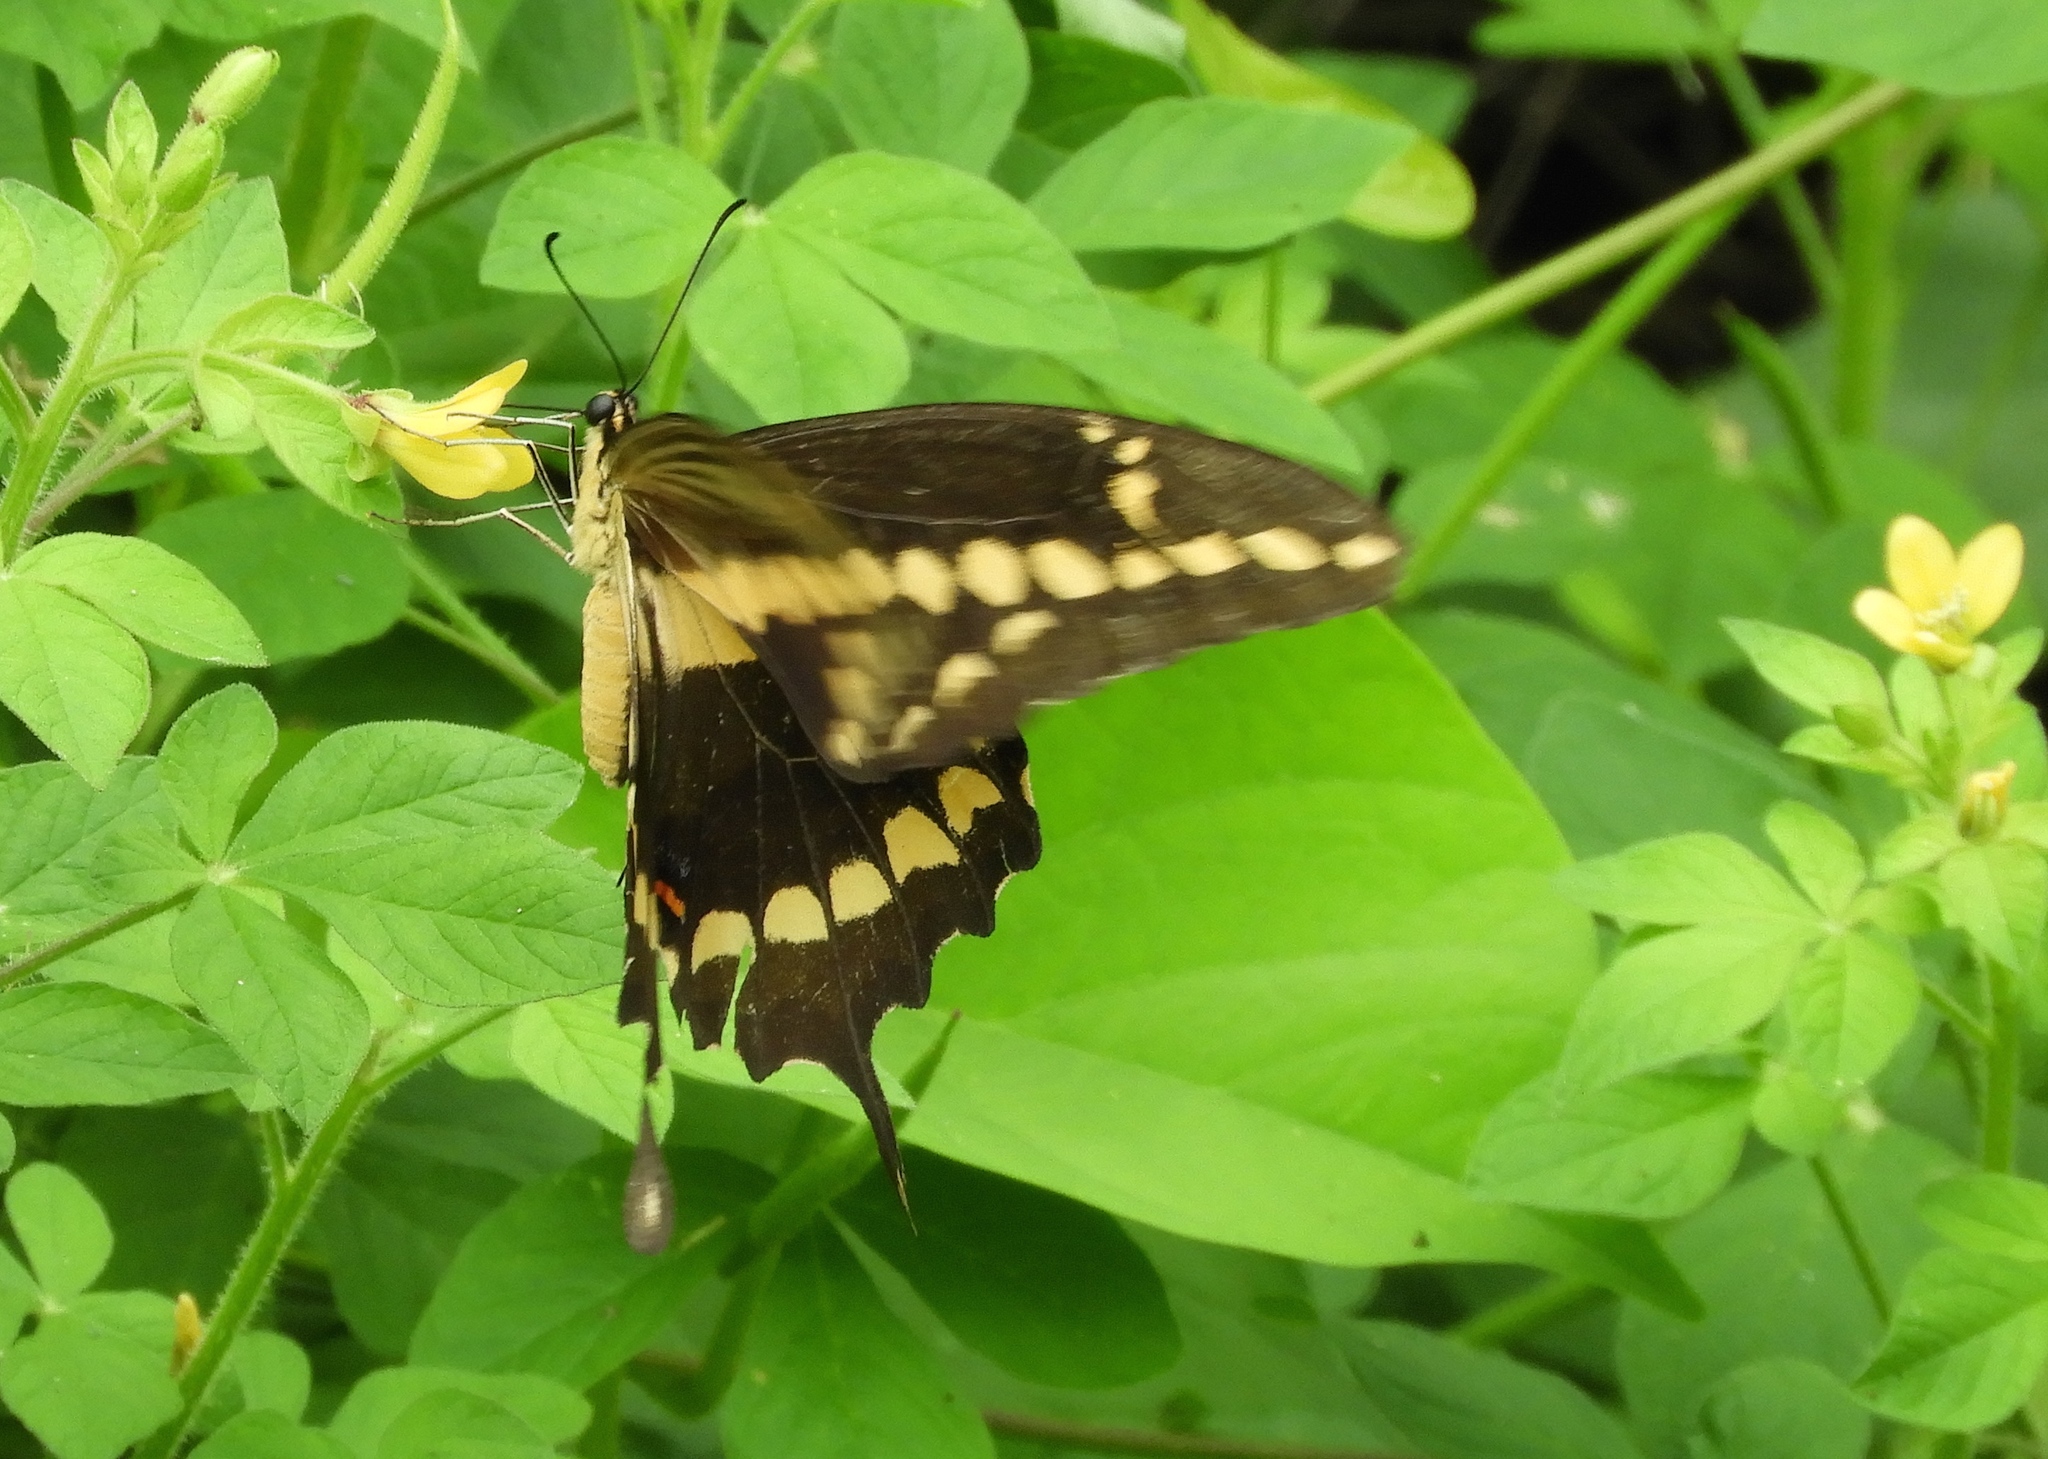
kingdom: Animalia
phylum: Arthropoda
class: Insecta
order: Lepidoptera
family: Papilionidae
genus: Papilio
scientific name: Papilio rumiko
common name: Western giant swallowtail
